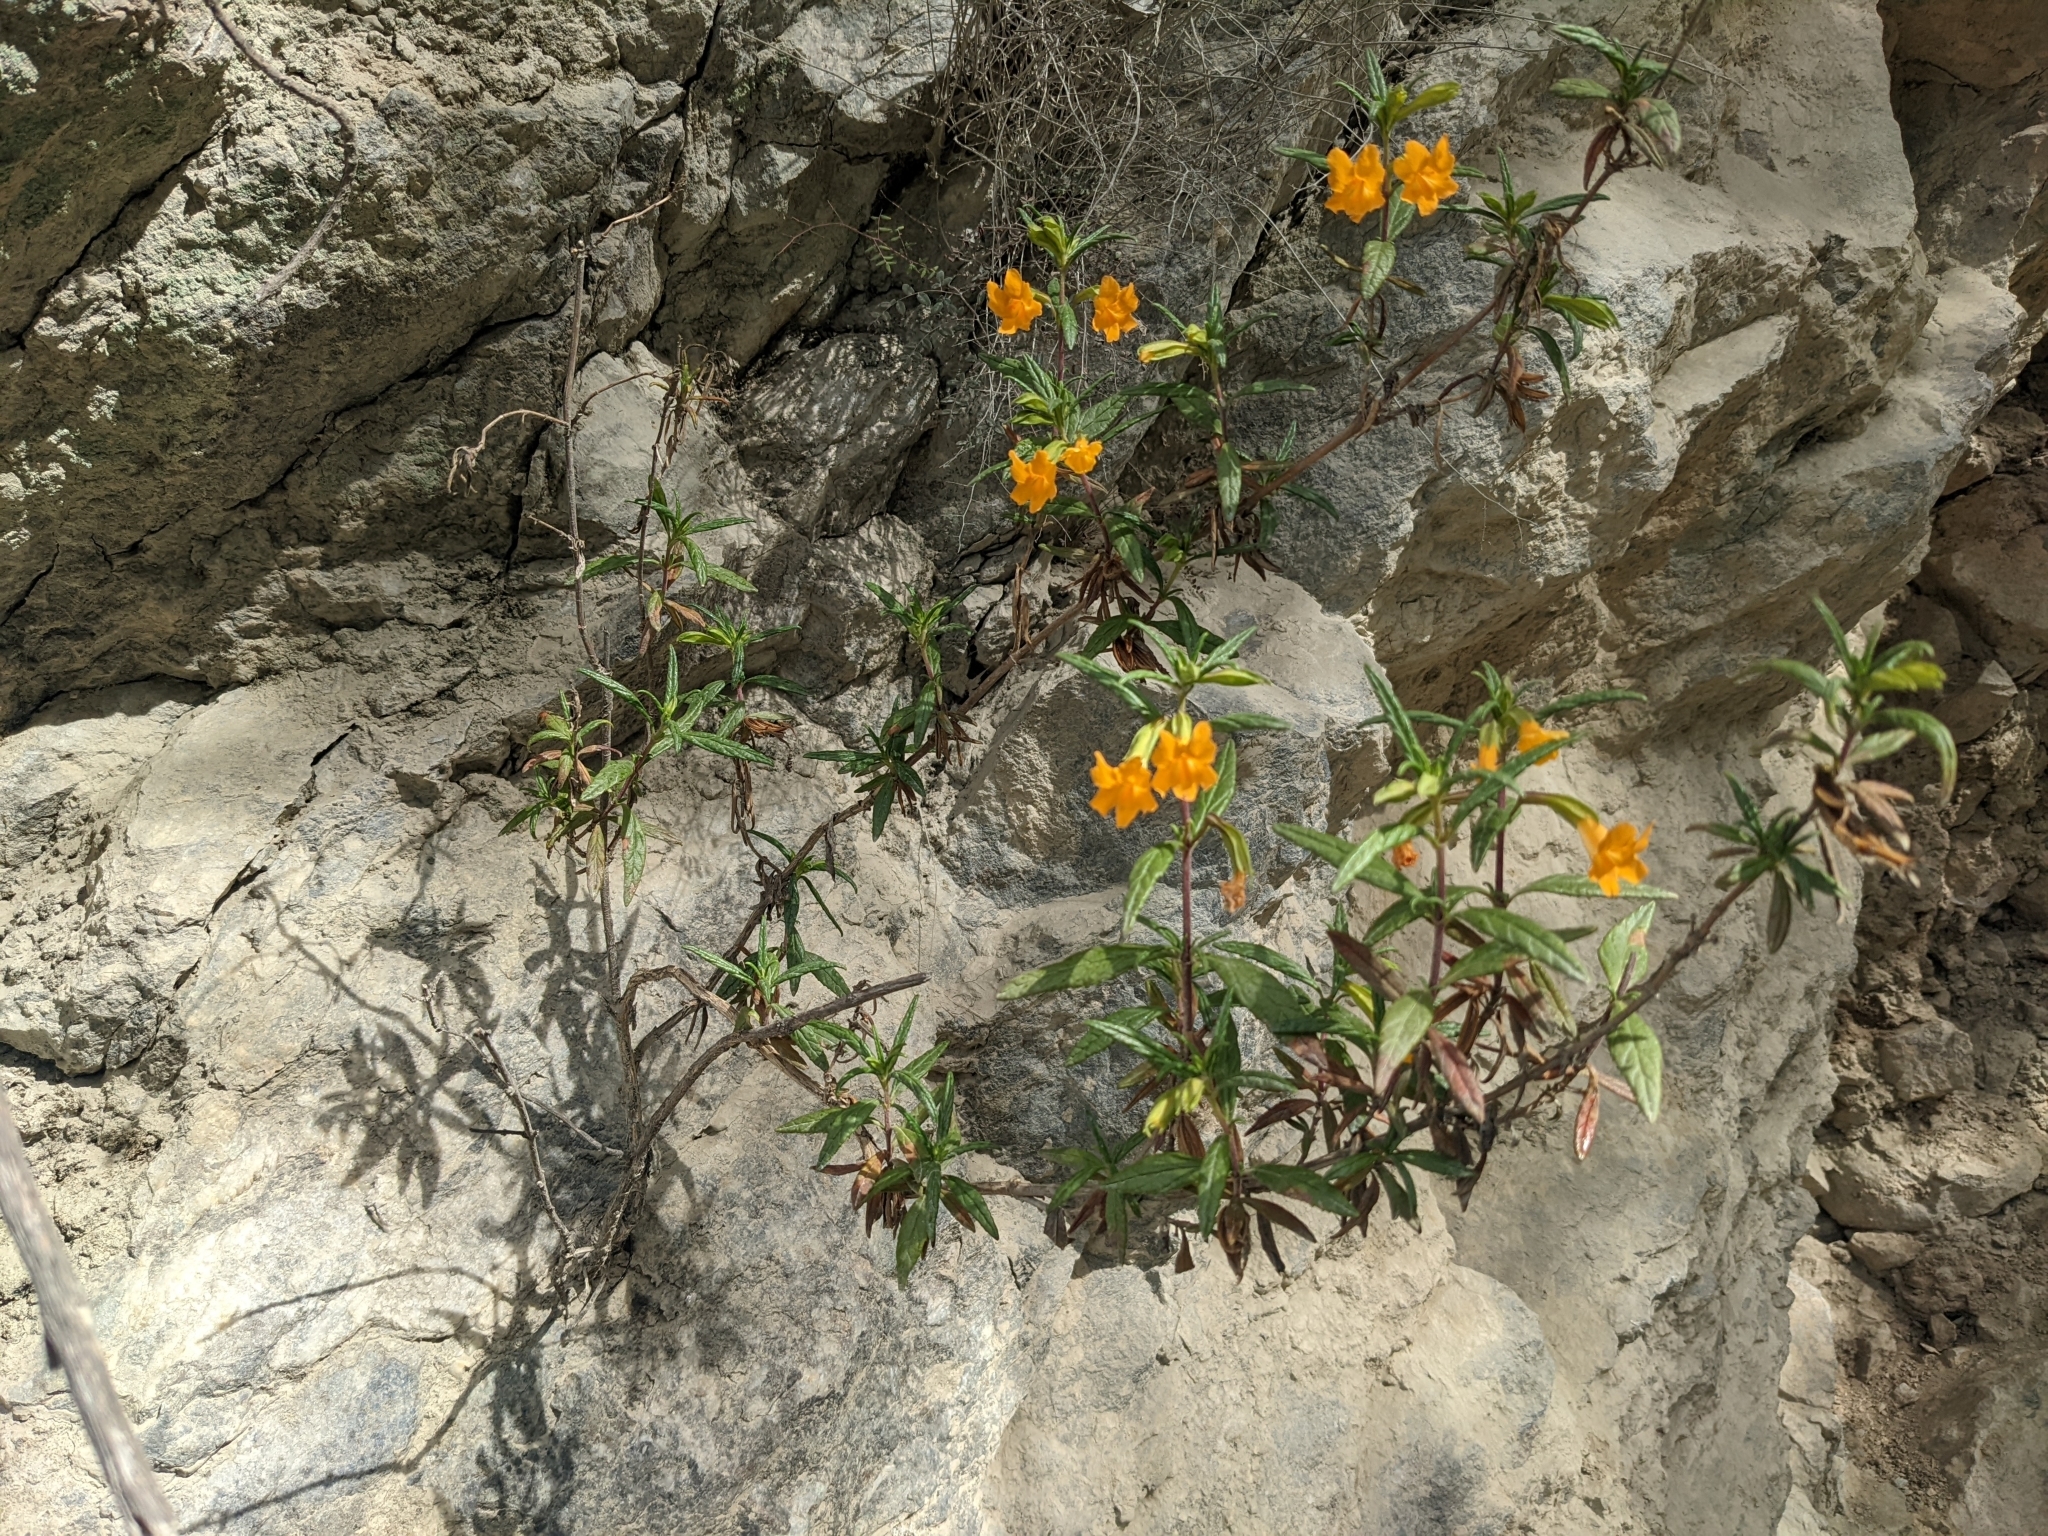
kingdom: Plantae
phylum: Tracheophyta
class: Magnoliopsida
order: Lamiales
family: Phrymaceae
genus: Diplacus
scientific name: Diplacus aurantiacus
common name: Bush monkey-flower
